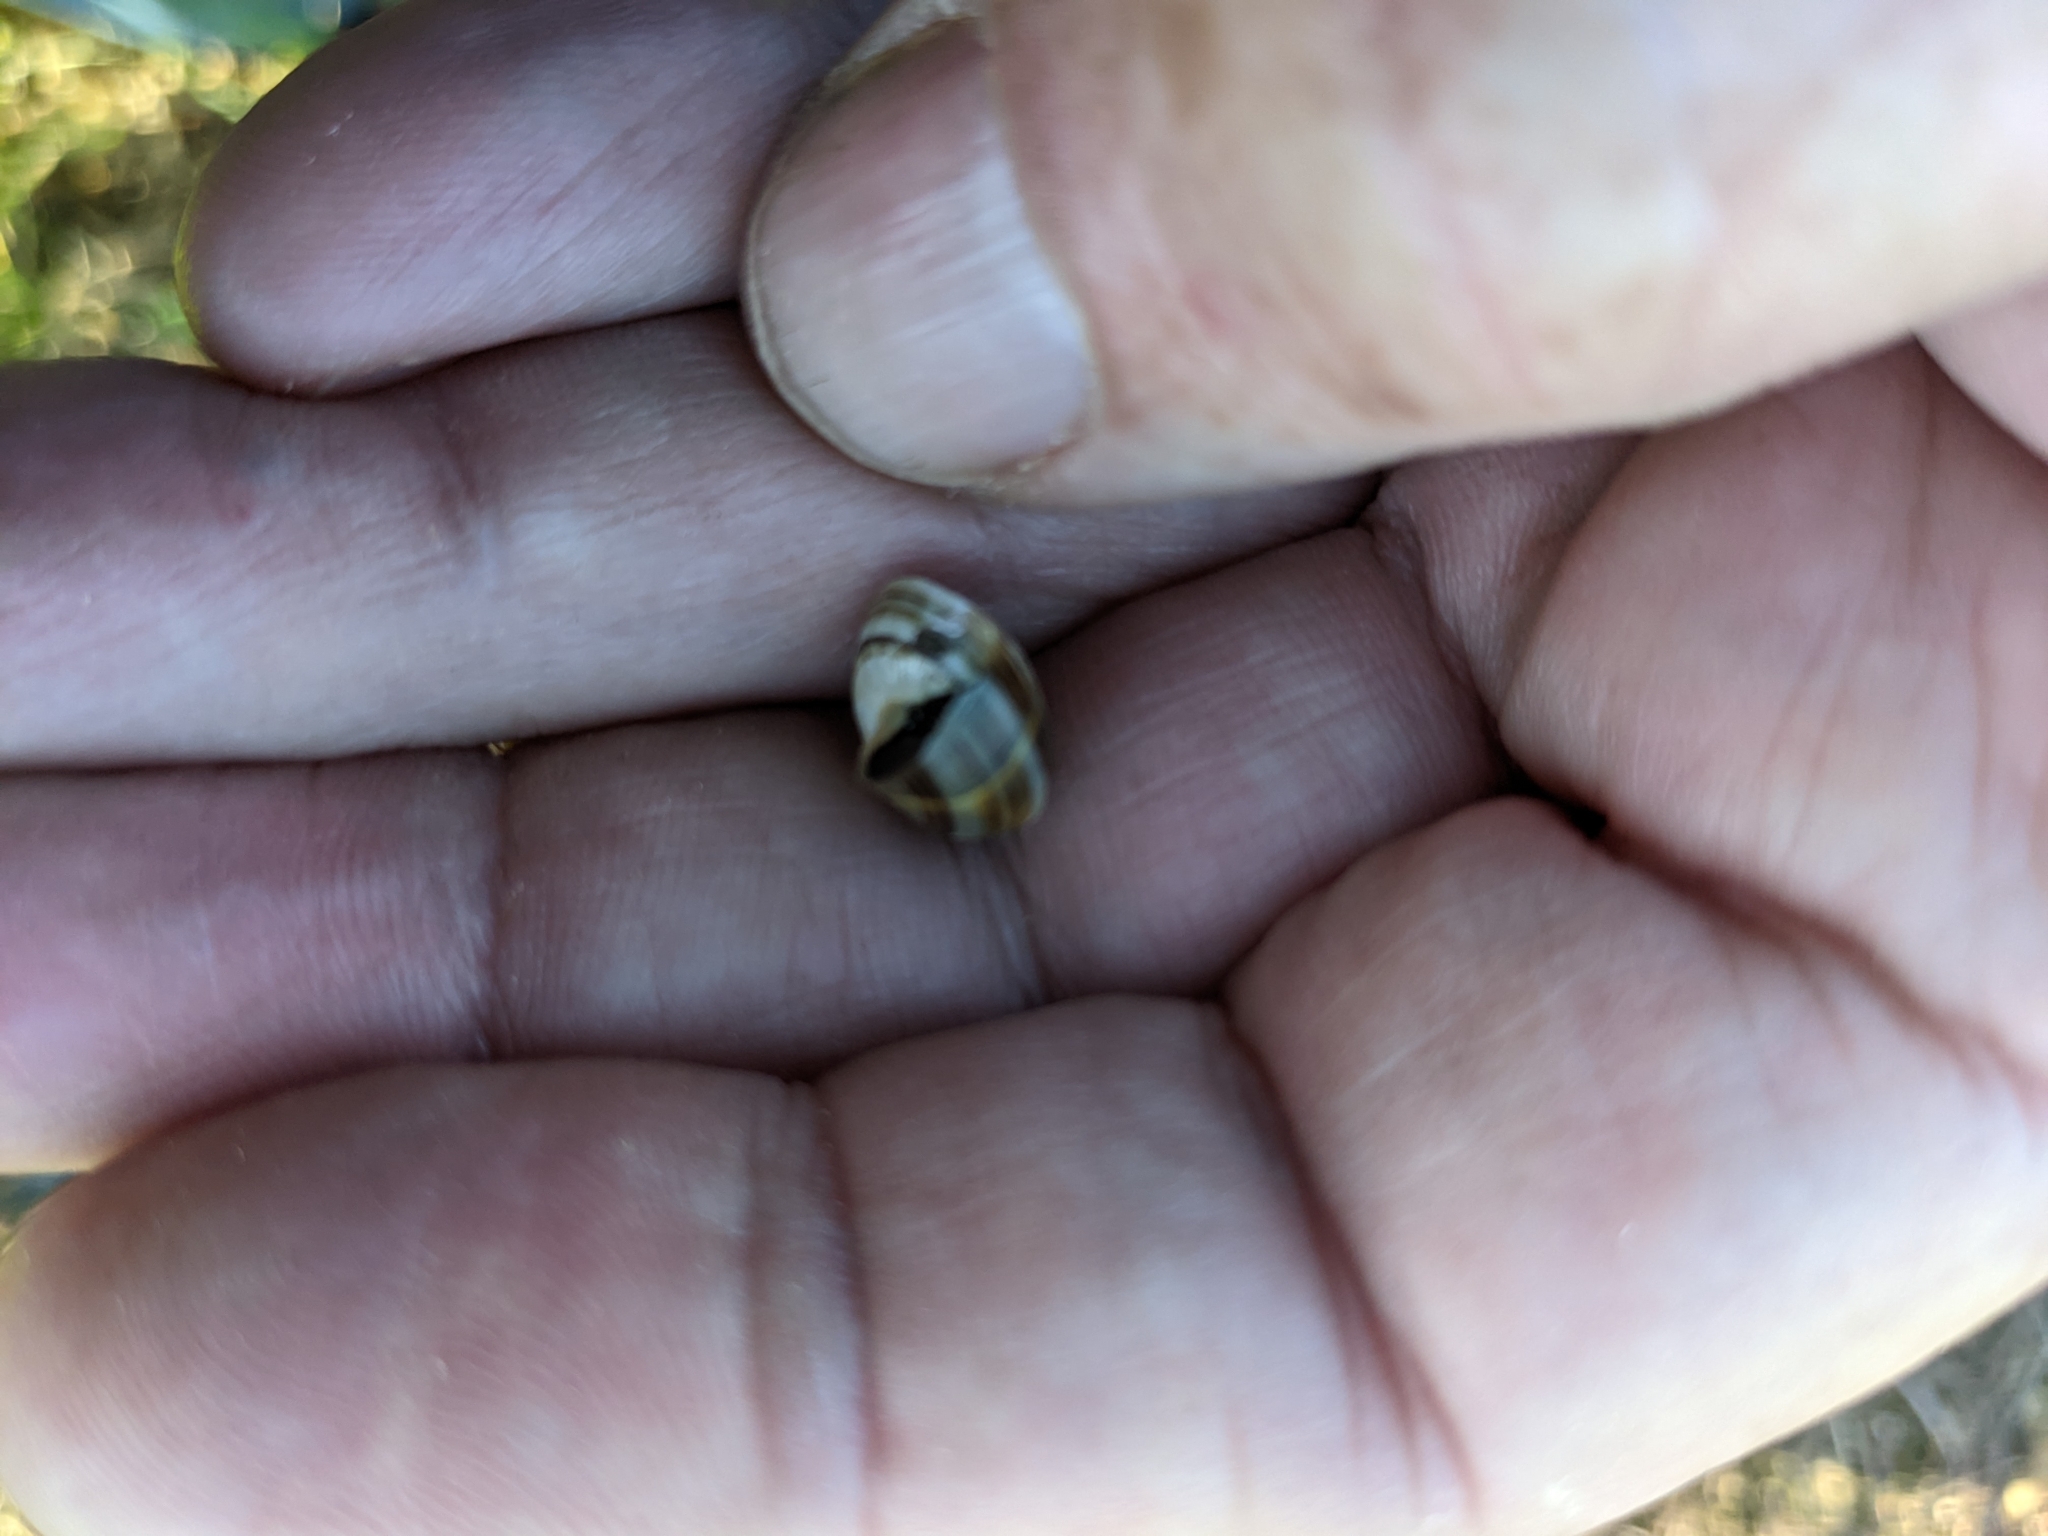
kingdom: Animalia
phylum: Mollusca
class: Gastropoda
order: Stylommatophora
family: Helicidae
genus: Theba
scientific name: Theba pisana
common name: White snail
